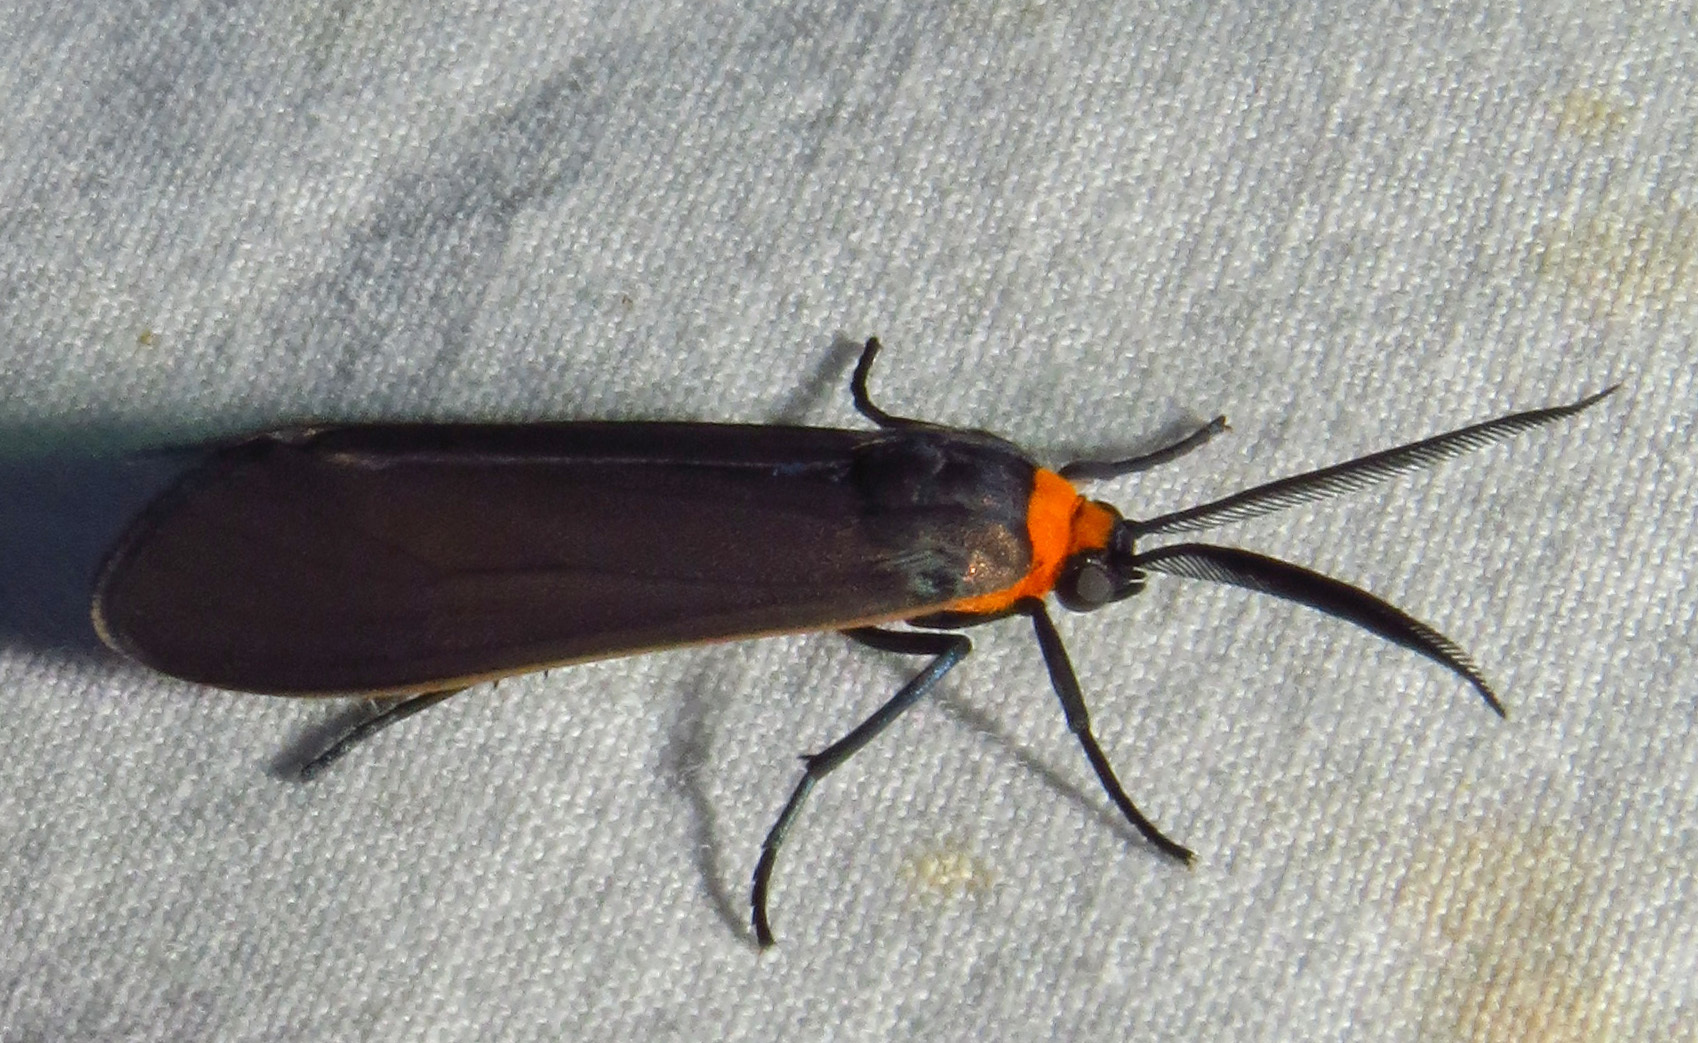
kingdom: Animalia
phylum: Arthropoda
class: Insecta
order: Lepidoptera
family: Erebidae
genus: Cisseps
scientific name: Cisseps fulvicollis
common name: Yellow-collared scape moth
